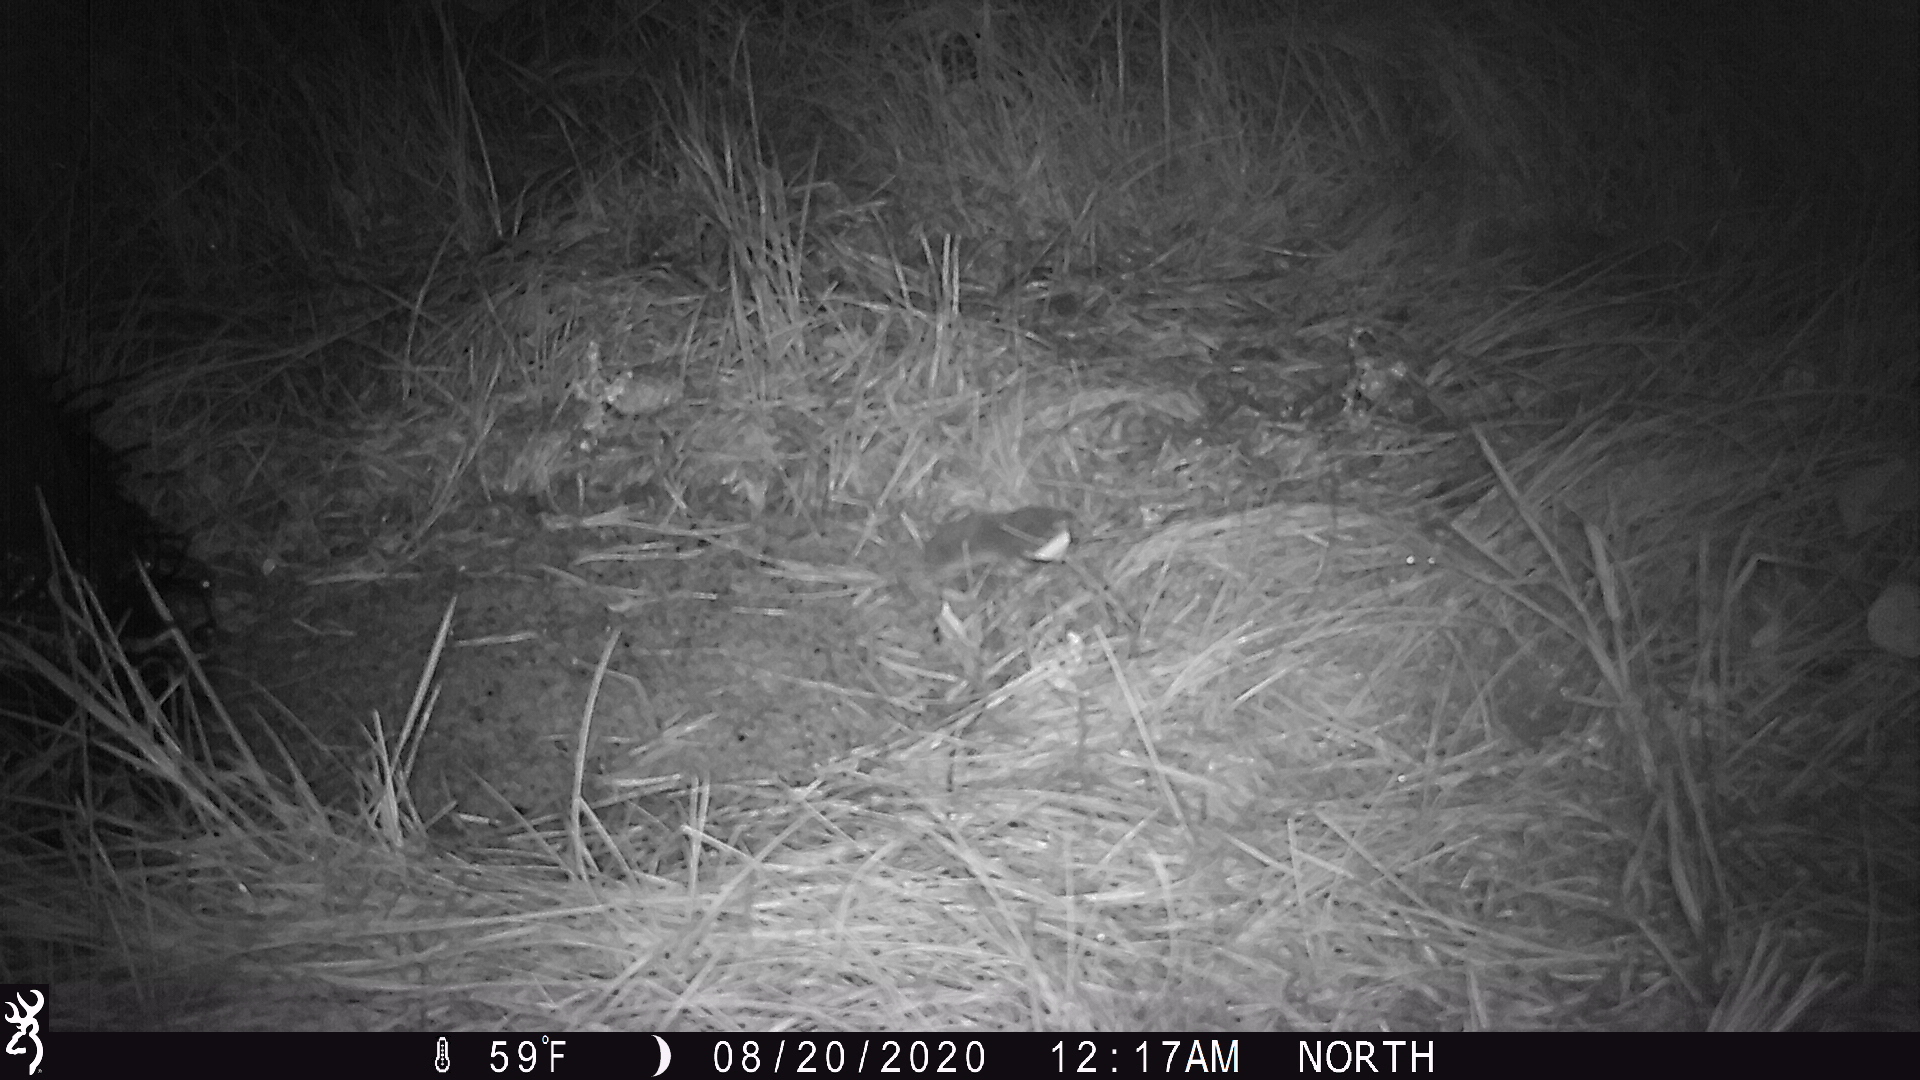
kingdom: Animalia
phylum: Chordata
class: Mammalia
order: Soricomorpha
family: Soricidae
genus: Blarina
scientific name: Blarina brevicauda
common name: Northern short-tailed shrew
